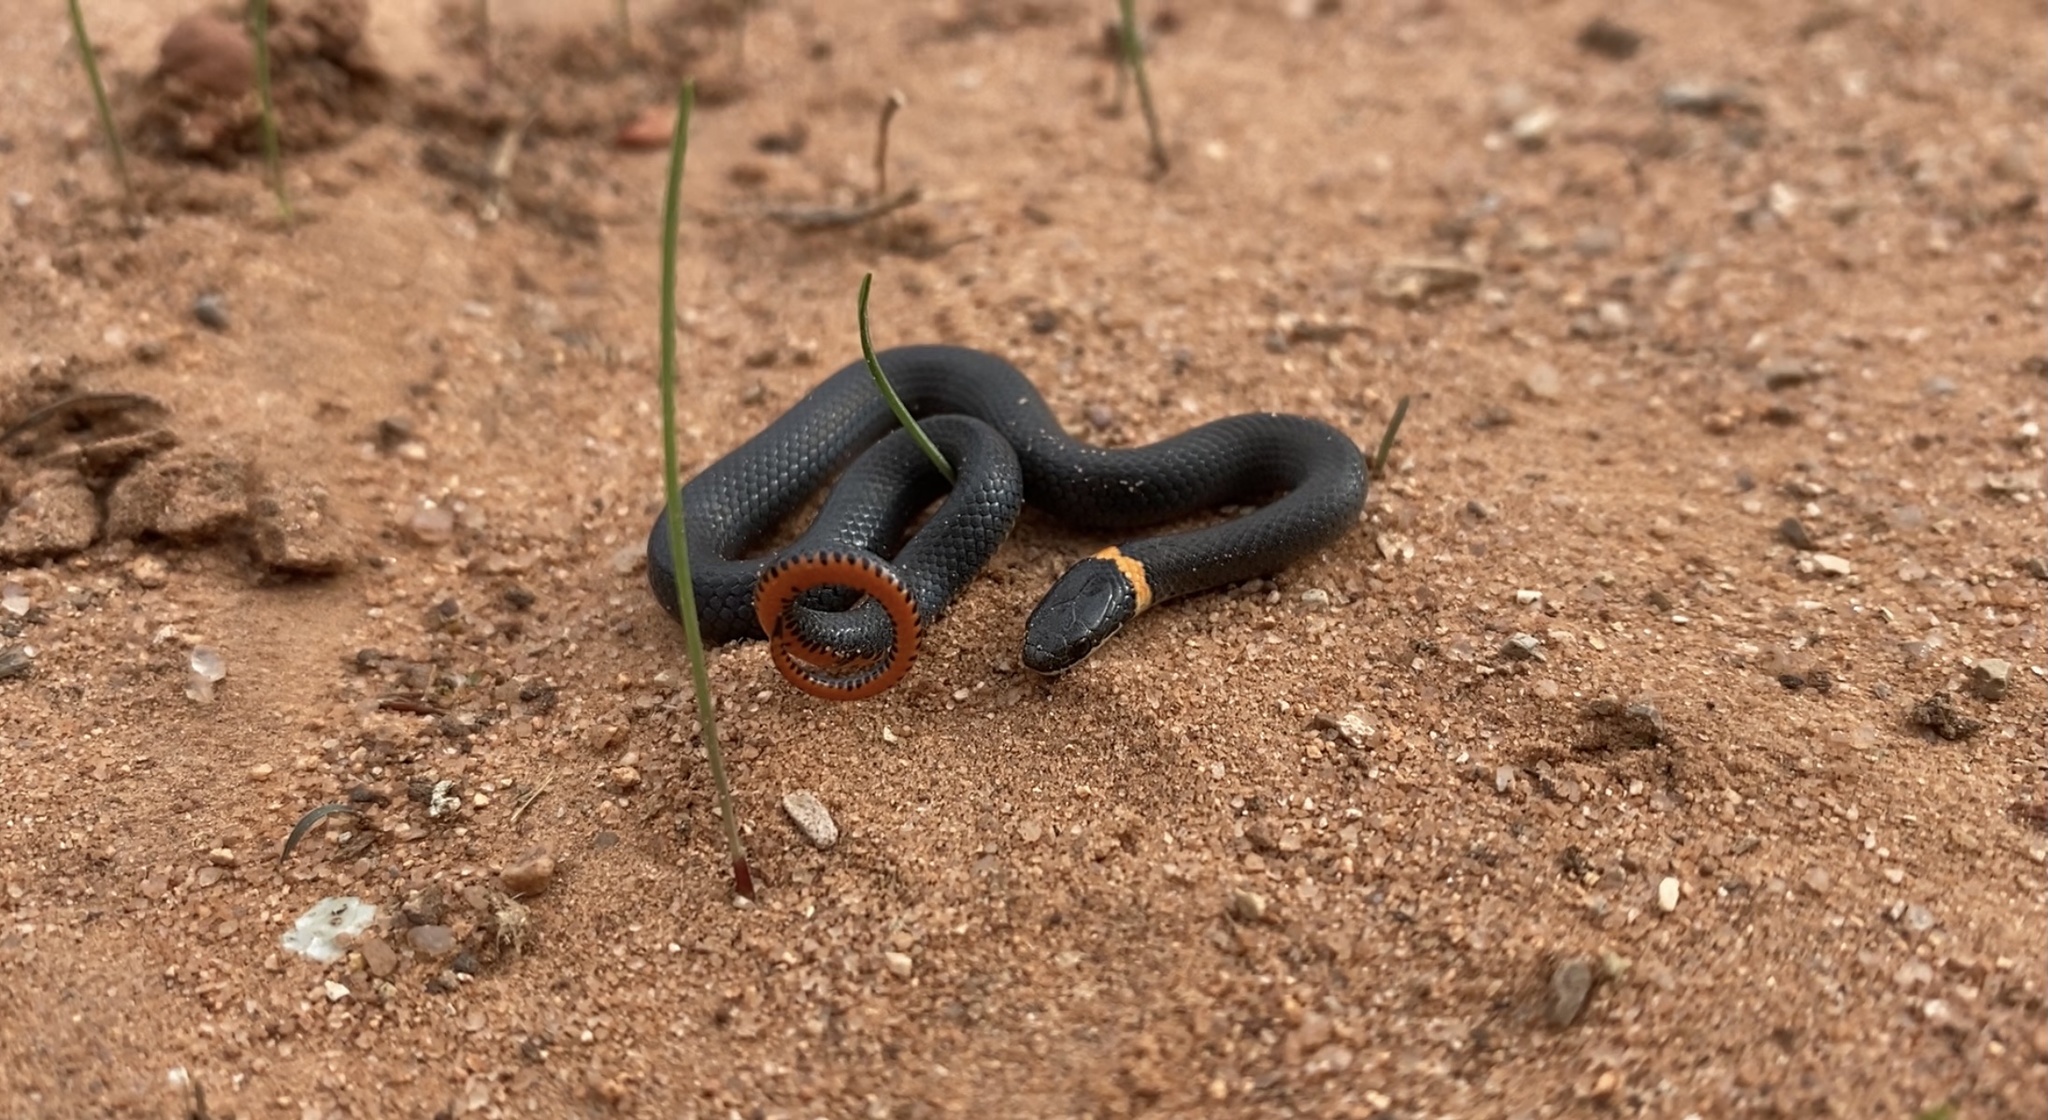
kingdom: Animalia
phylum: Chordata
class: Squamata
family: Colubridae
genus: Diadophis
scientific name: Diadophis punctatus
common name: Ringneck snake
